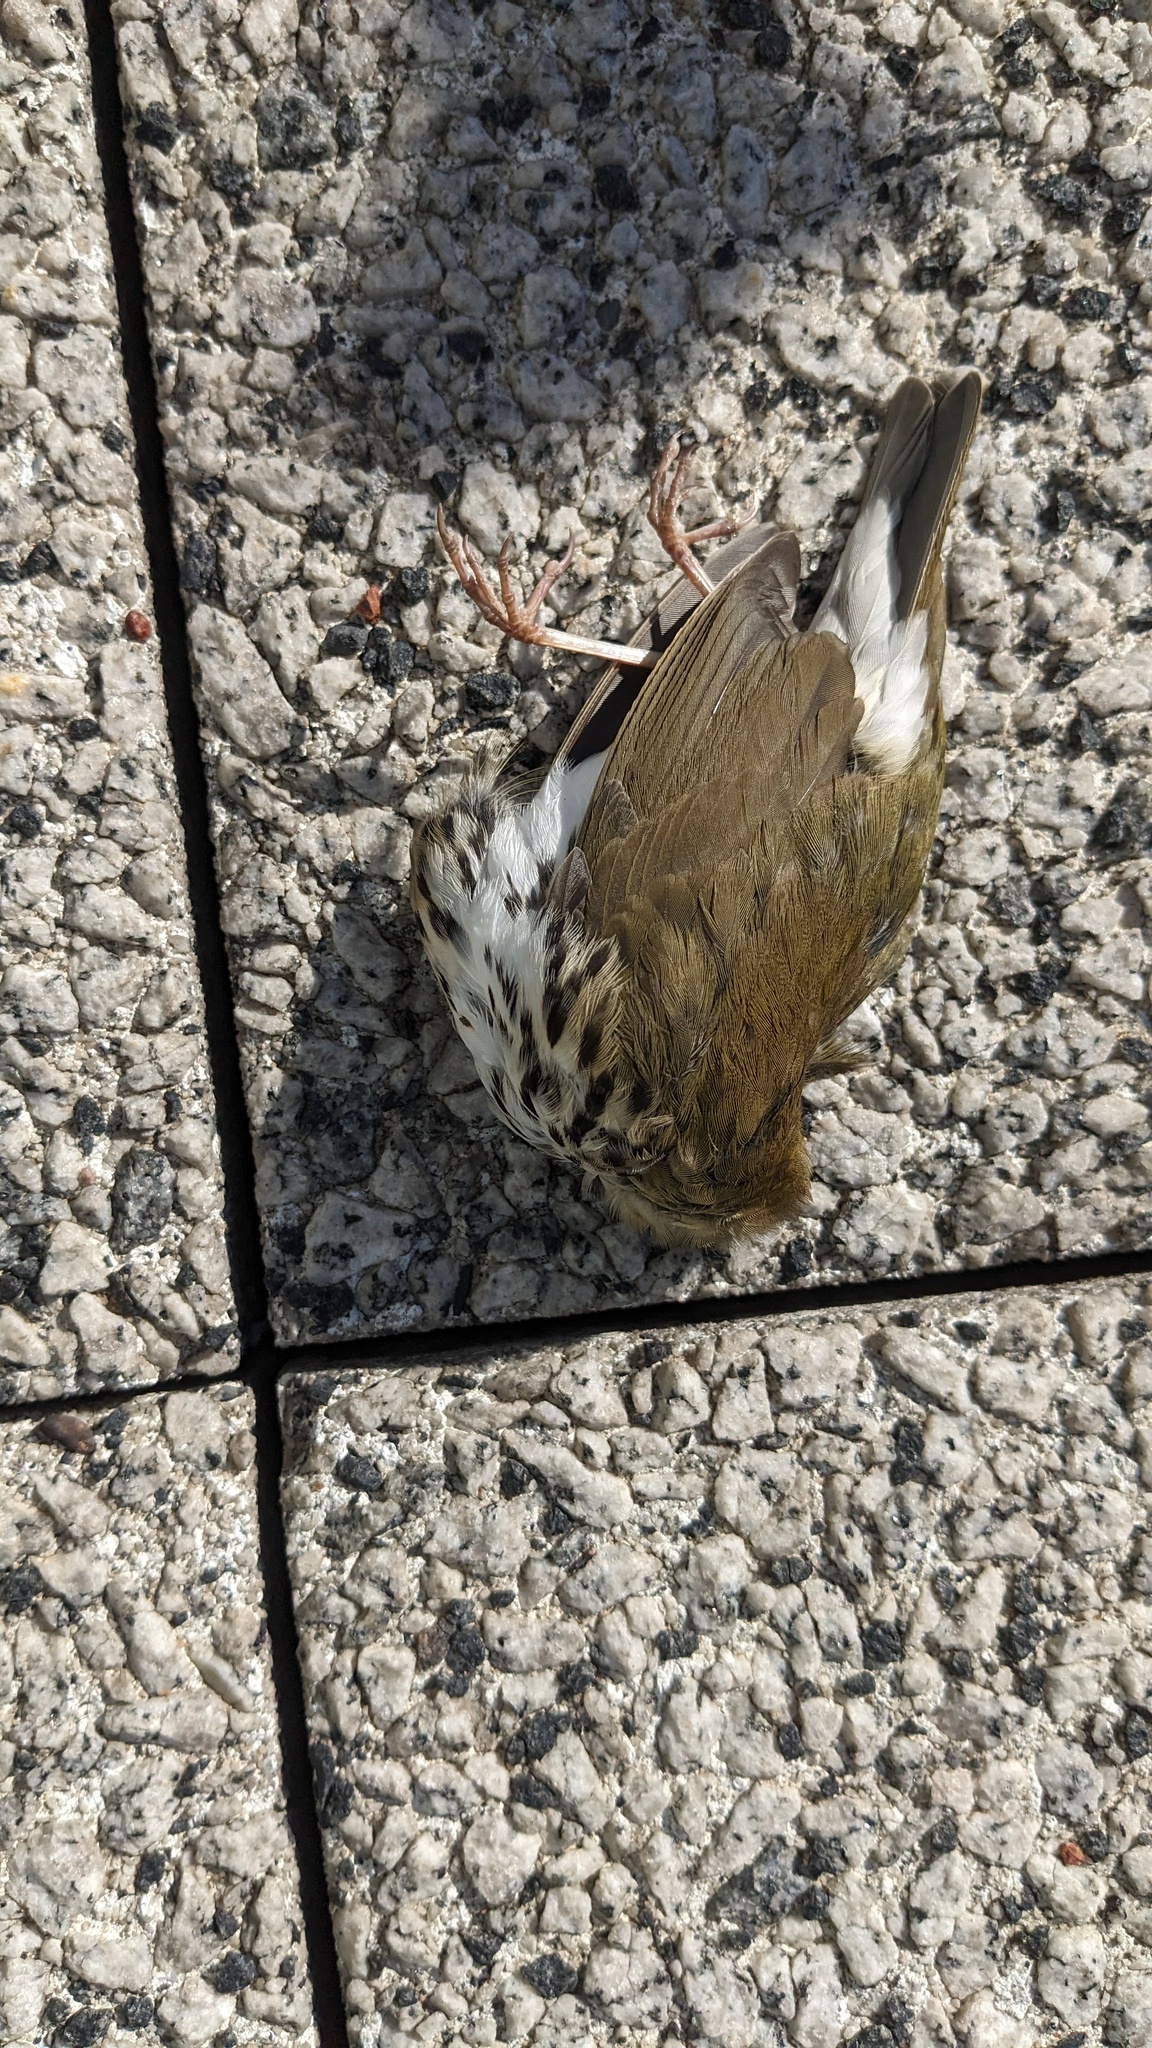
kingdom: Animalia
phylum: Chordata
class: Aves
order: Passeriformes
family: Parulidae
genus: Seiurus
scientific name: Seiurus aurocapilla
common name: Ovenbird
